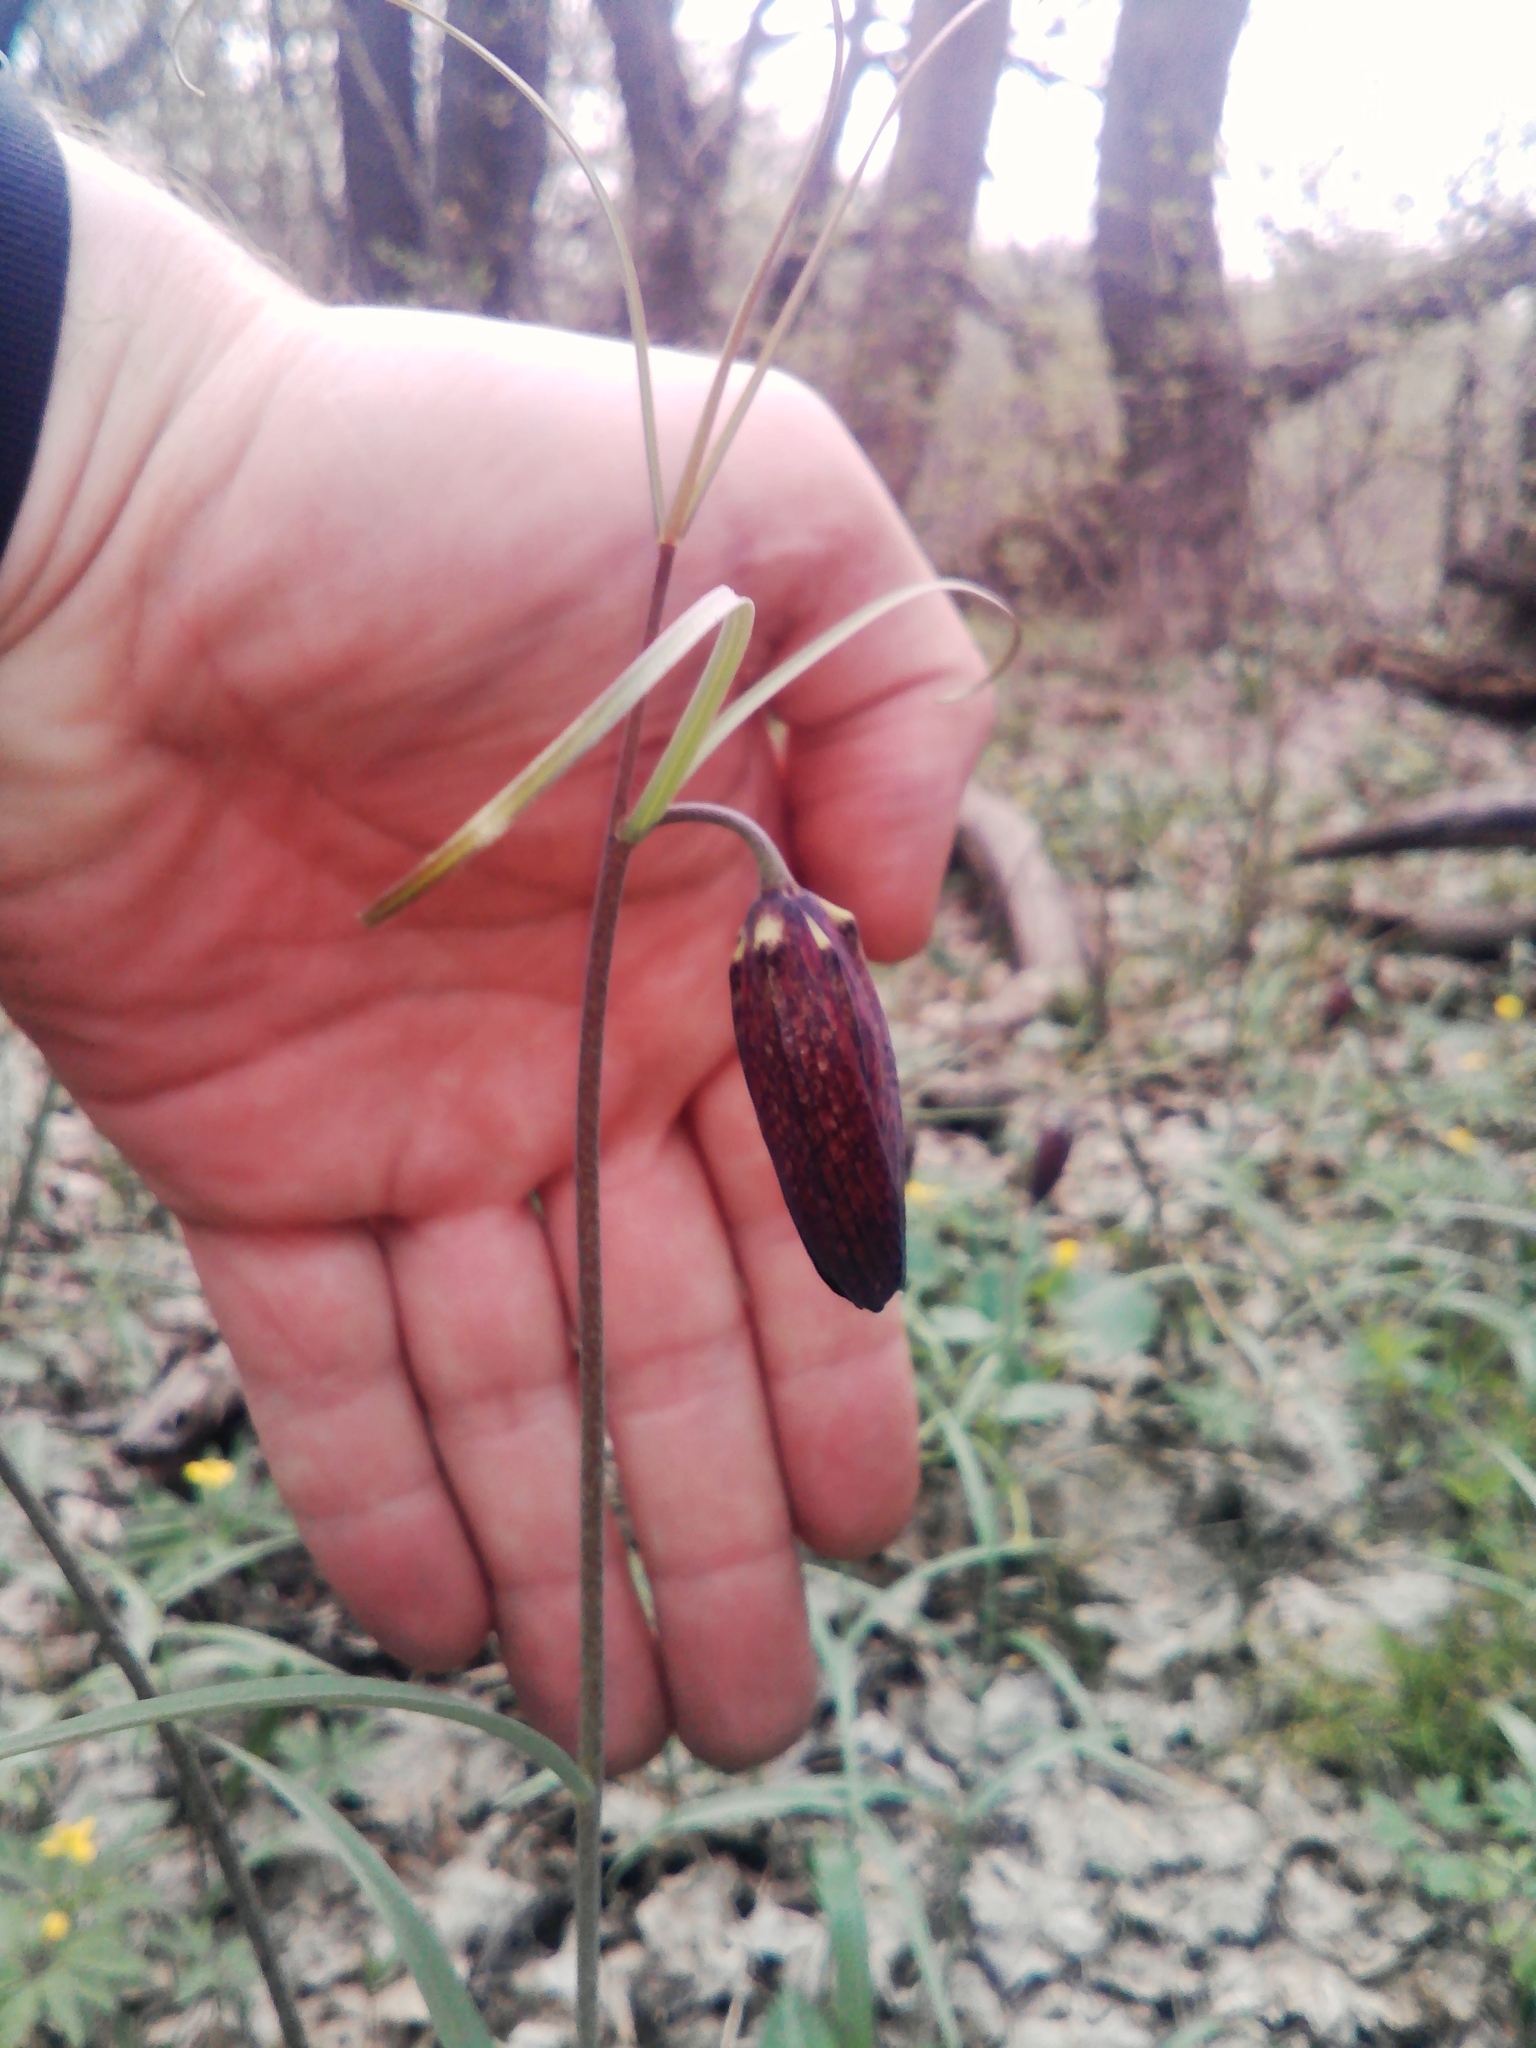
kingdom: Plantae
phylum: Tracheophyta
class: Liliopsida
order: Liliales
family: Liliaceae
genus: Fritillaria
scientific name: Fritillaria ruthenica
